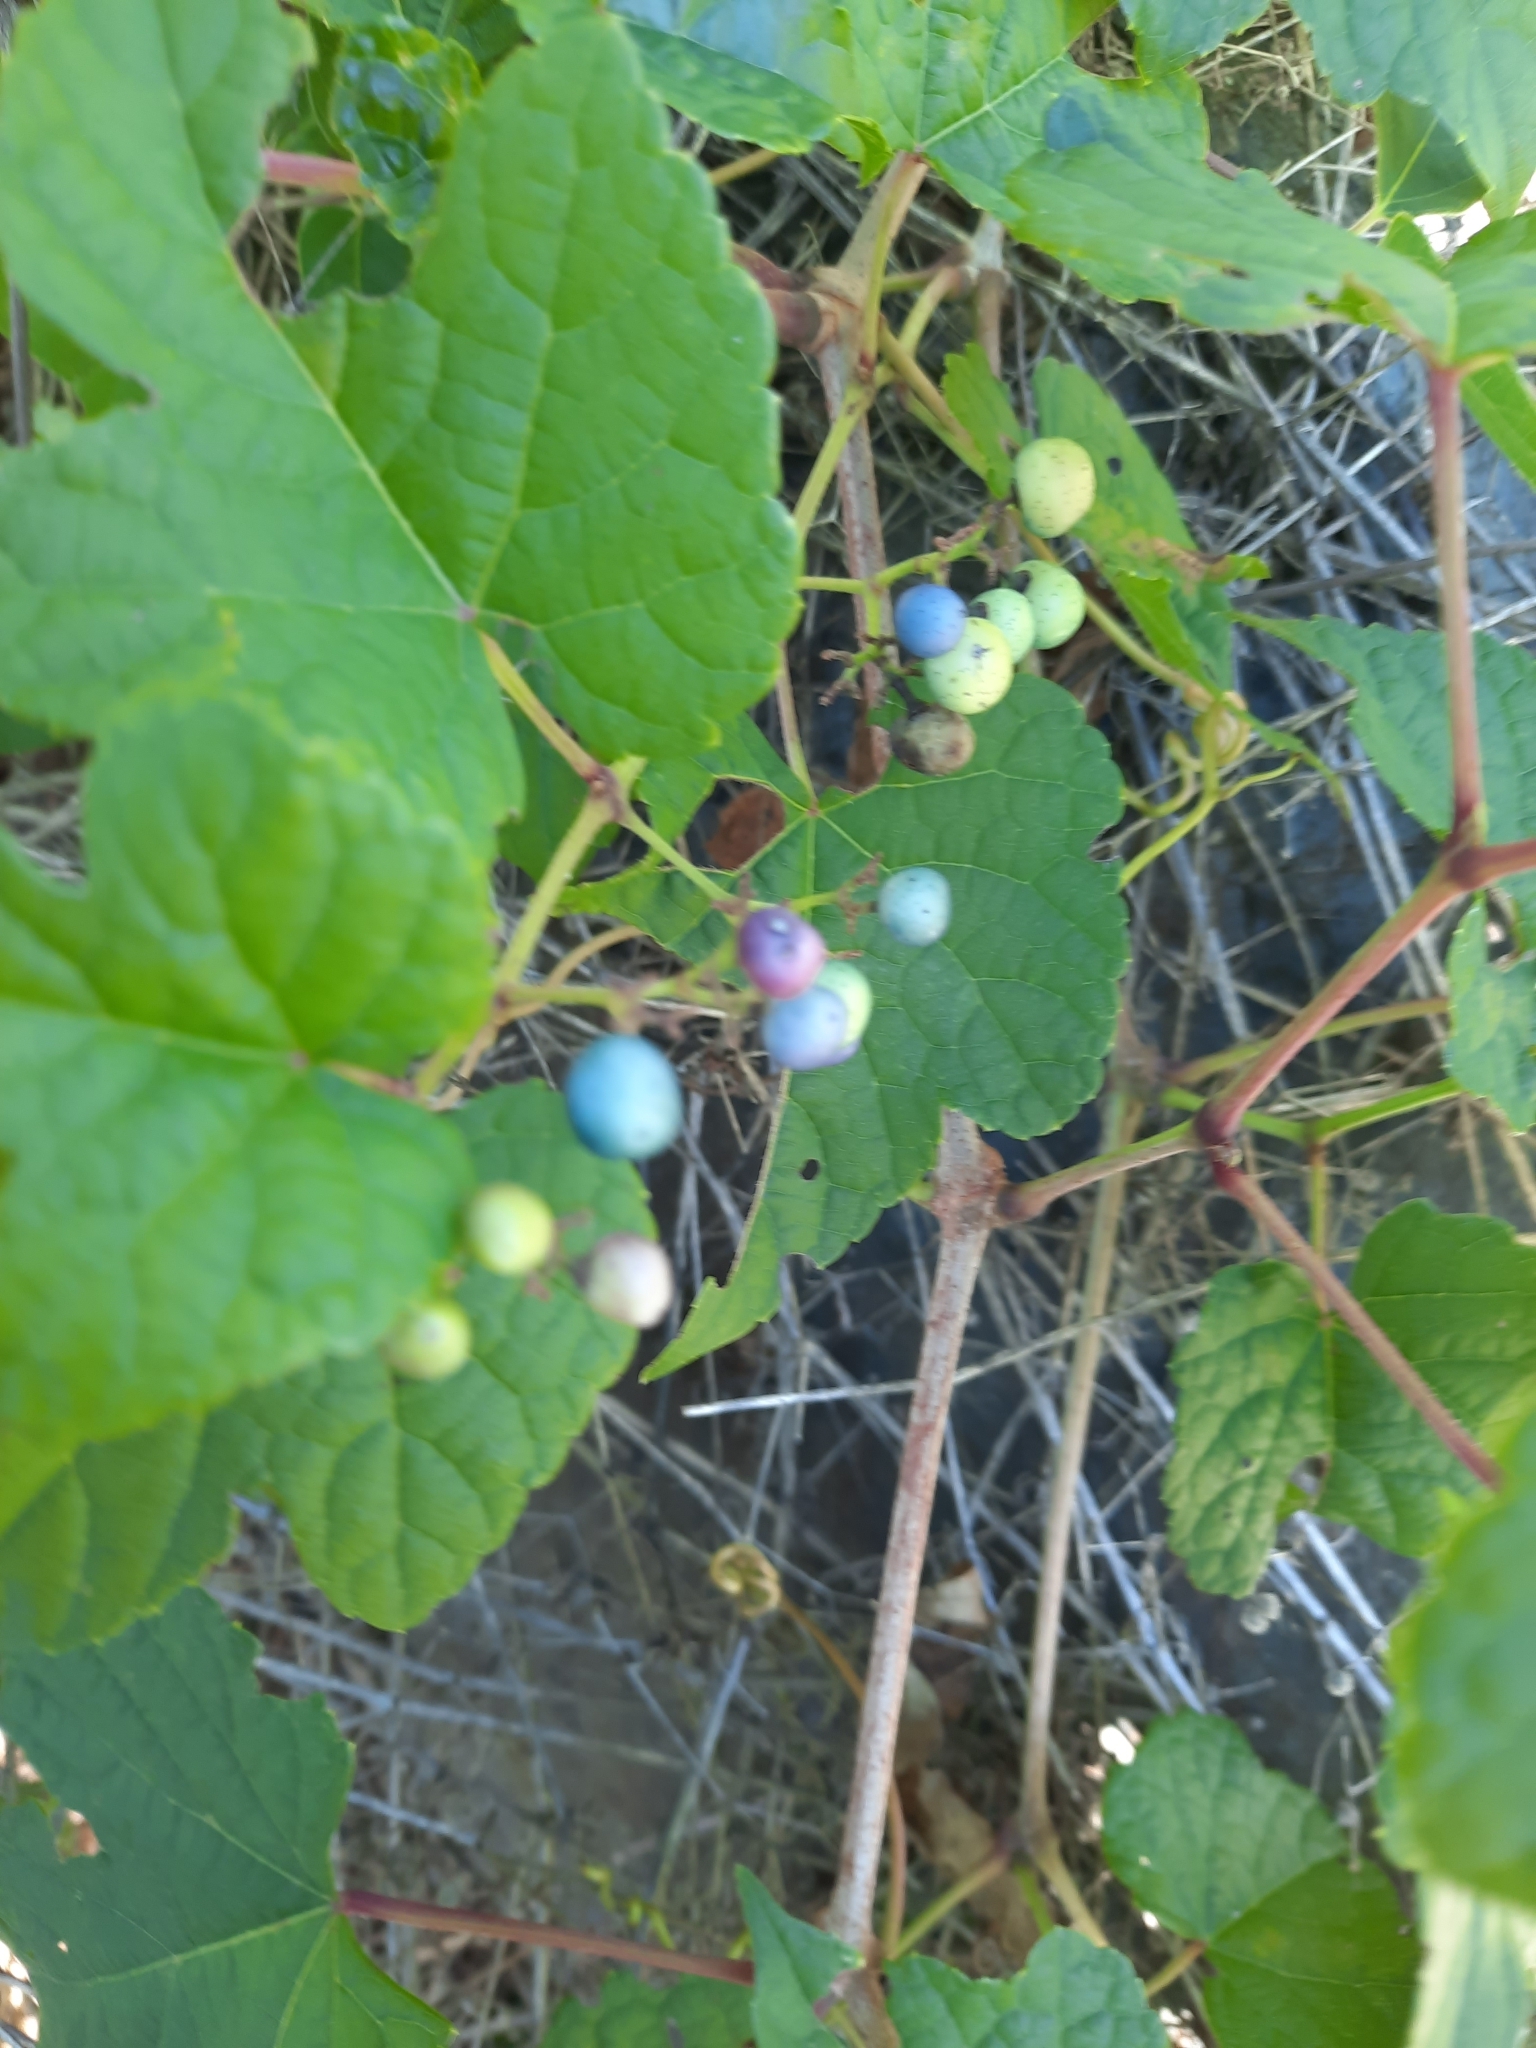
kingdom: Plantae
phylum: Tracheophyta
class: Magnoliopsida
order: Vitales
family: Vitaceae
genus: Ampelopsis
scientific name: Ampelopsis glandulosa
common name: Amur peppervine
